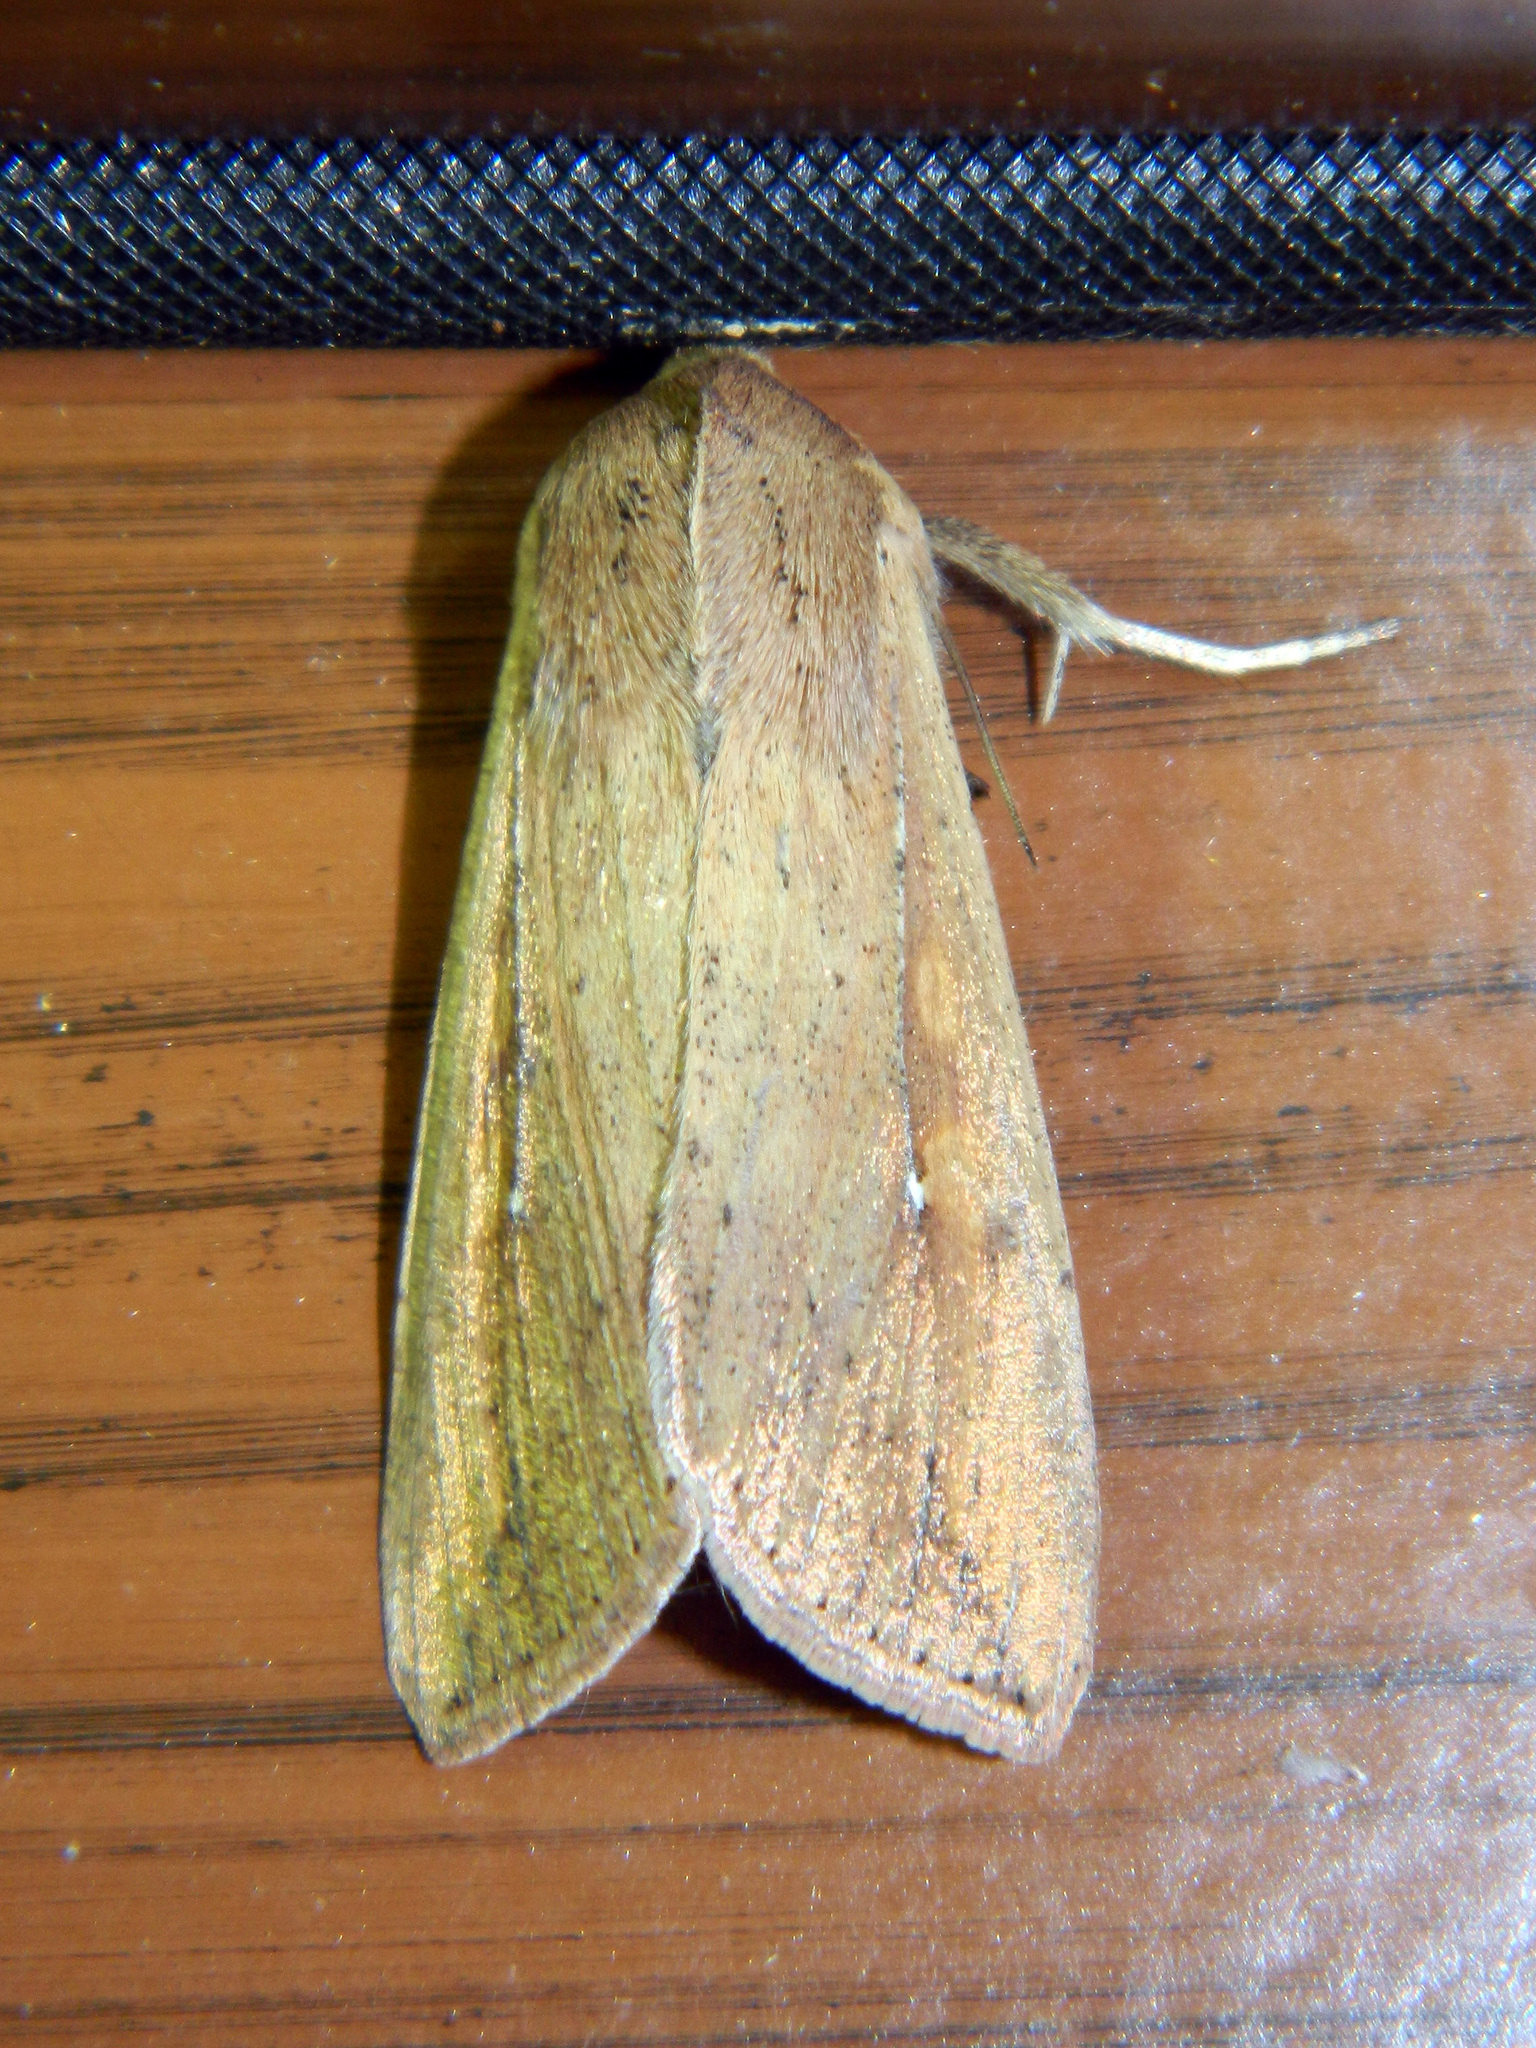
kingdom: Animalia
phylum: Arthropoda
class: Insecta
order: Lepidoptera
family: Noctuidae
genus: Mythimna
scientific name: Mythimna unipuncta
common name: White-speck
